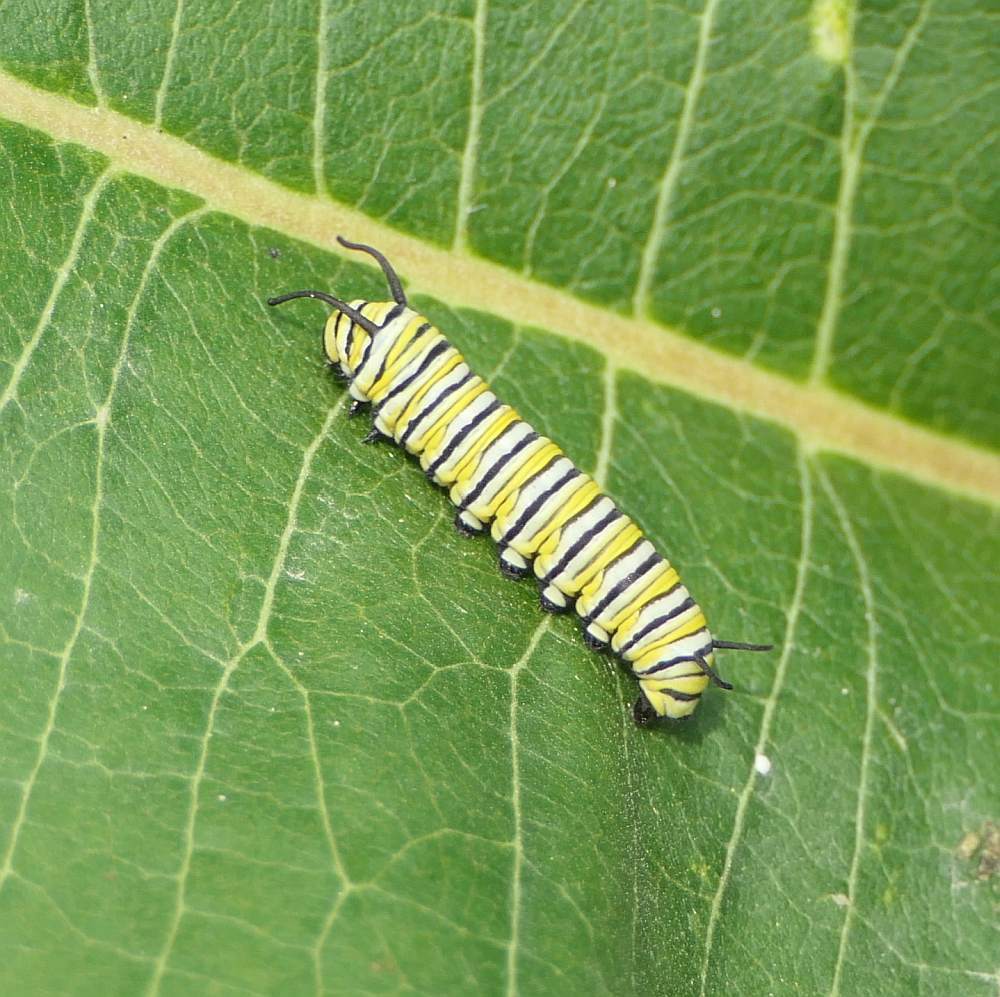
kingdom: Animalia
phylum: Arthropoda
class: Insecta
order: Lepidoptera
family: Nymphalidae
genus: Danaus
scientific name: Danaus plexippus
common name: Monarch
